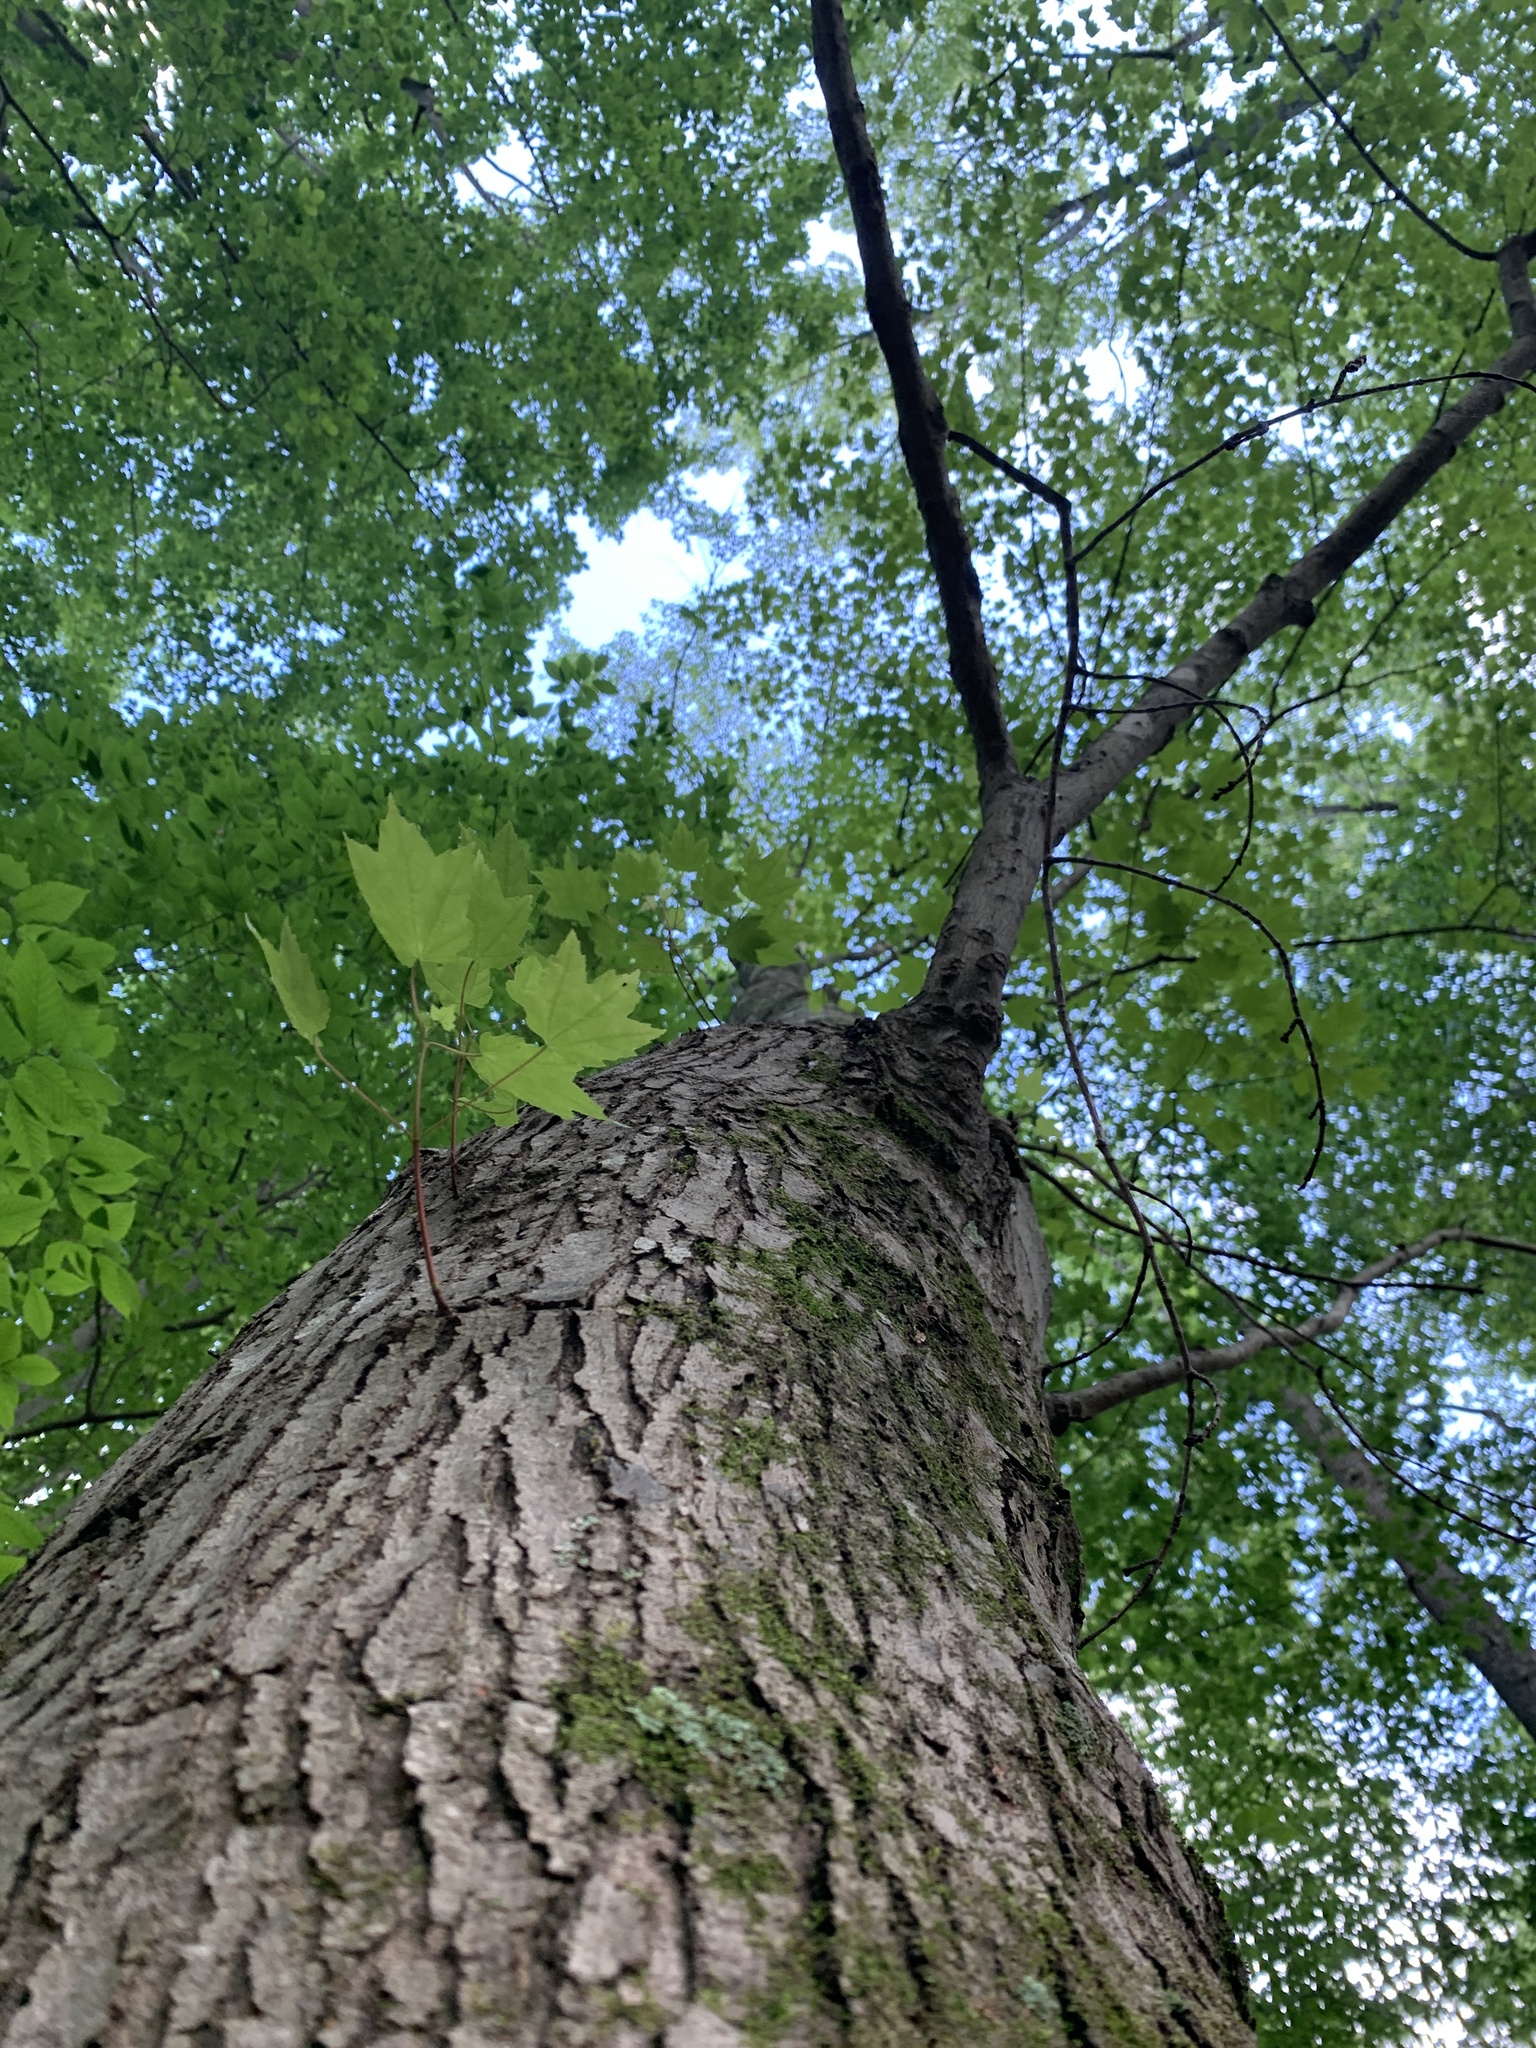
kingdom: Plantae
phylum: Tracheophyta
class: Magnoliopsida
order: Sapindales
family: Sapindaceae
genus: Acer
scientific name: Acer rubrum
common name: Red maple
